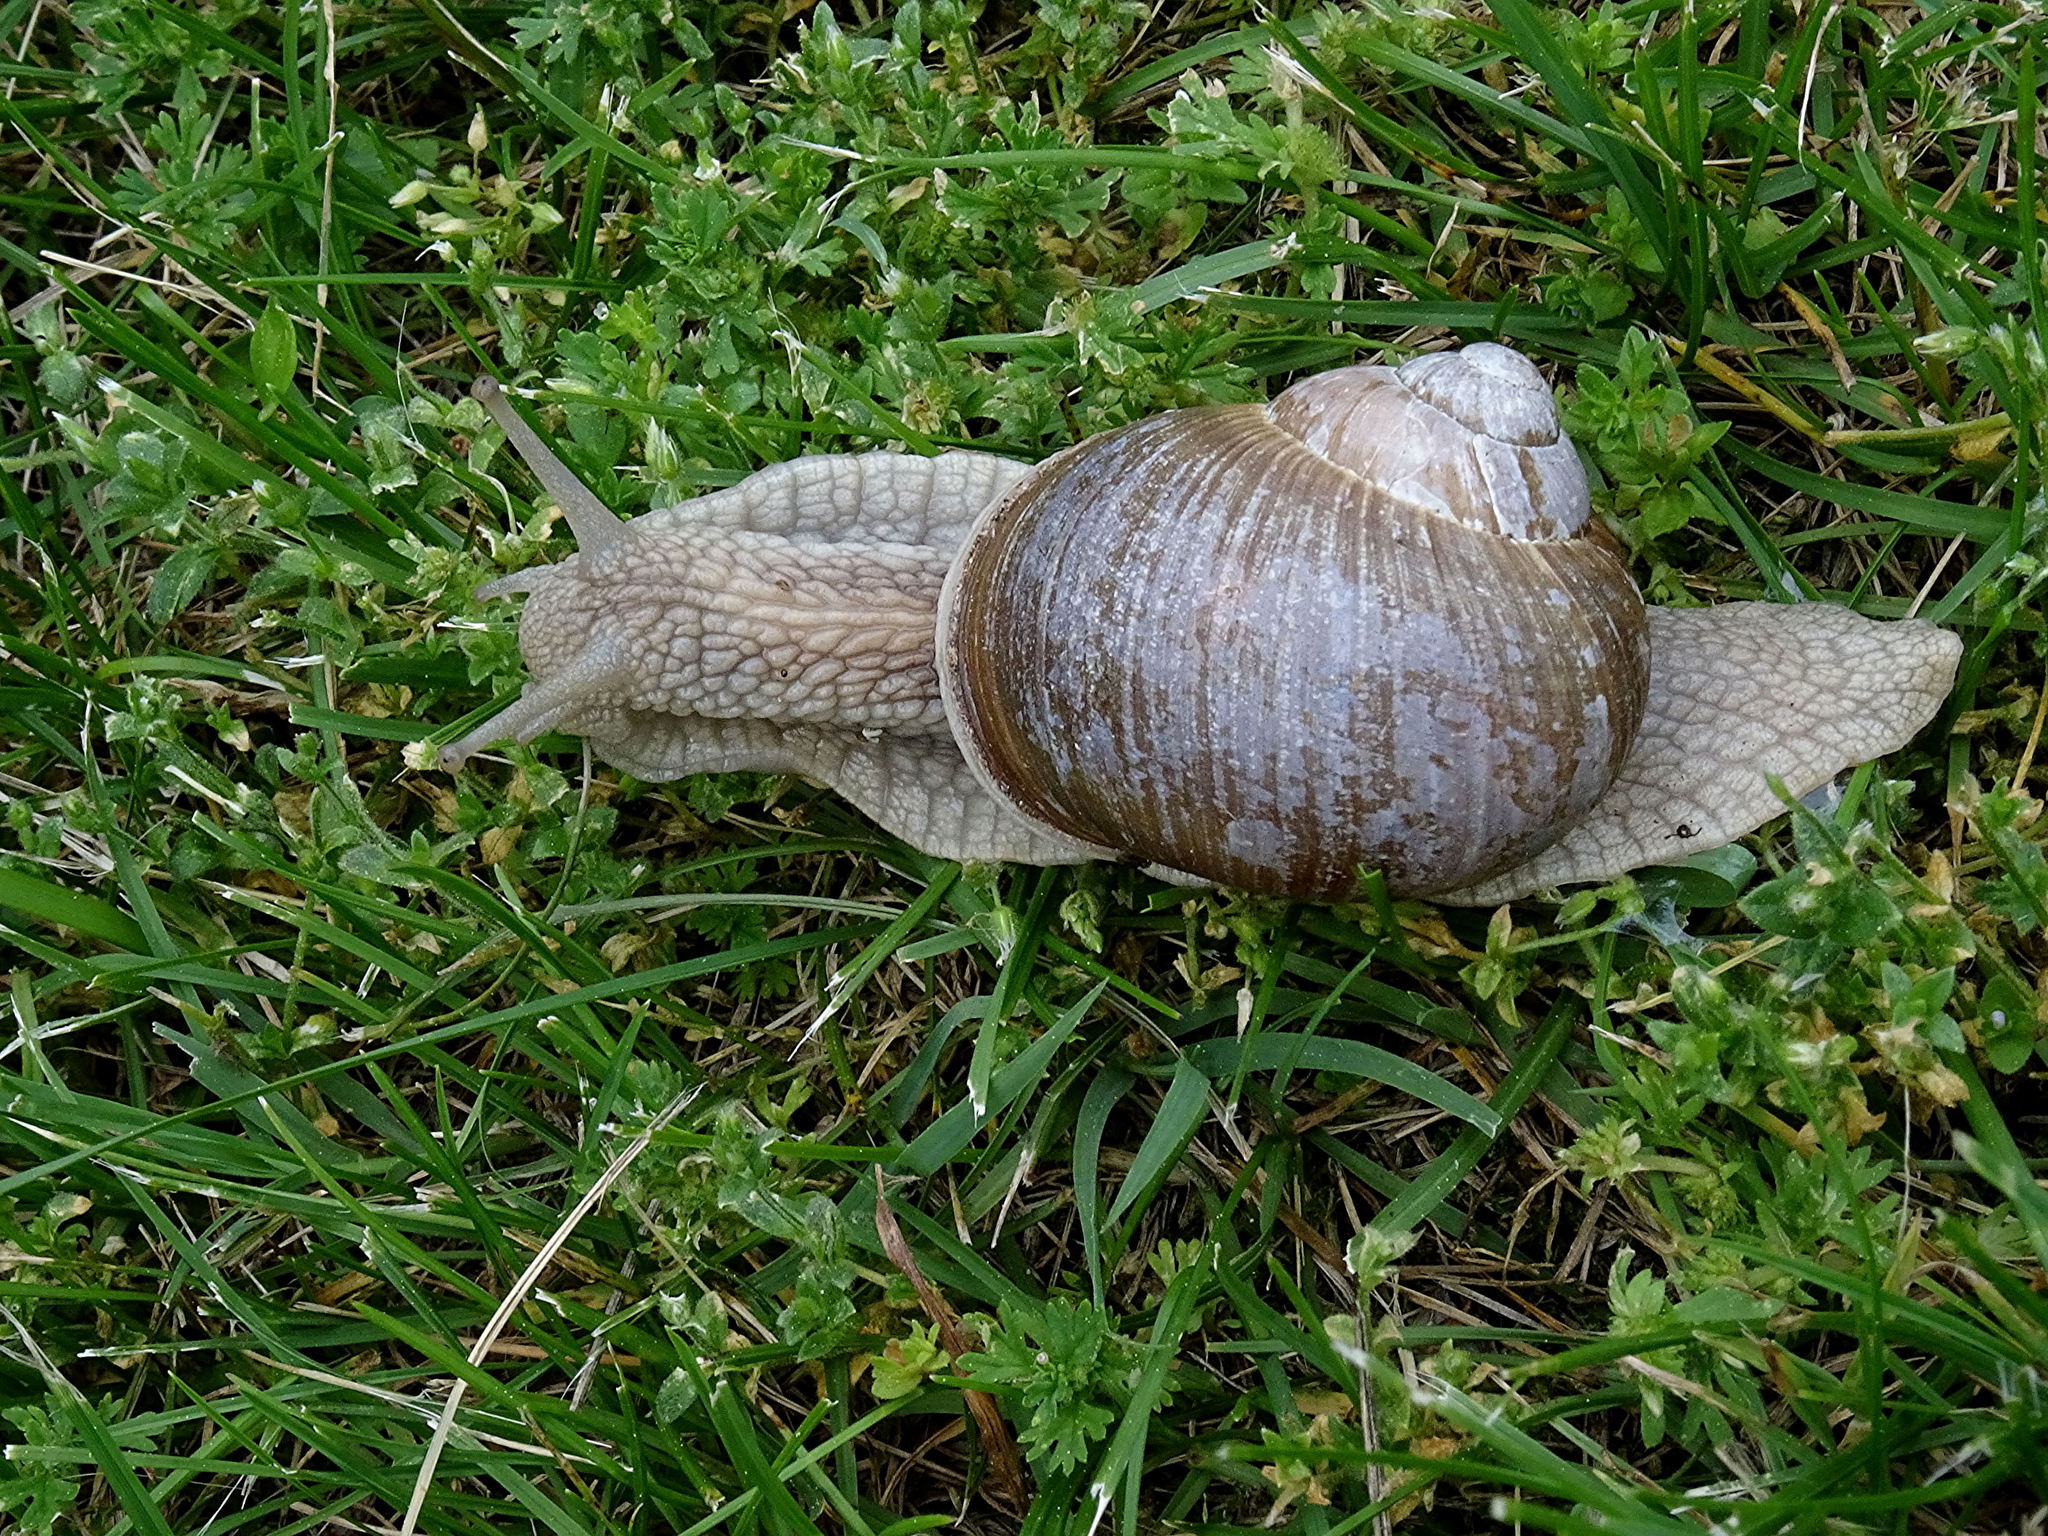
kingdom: Animalia
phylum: Mollusca
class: Gastropoda
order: Stylommatophora
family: Helicidae
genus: Helix
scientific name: Helix pomatia
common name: Roman snail
